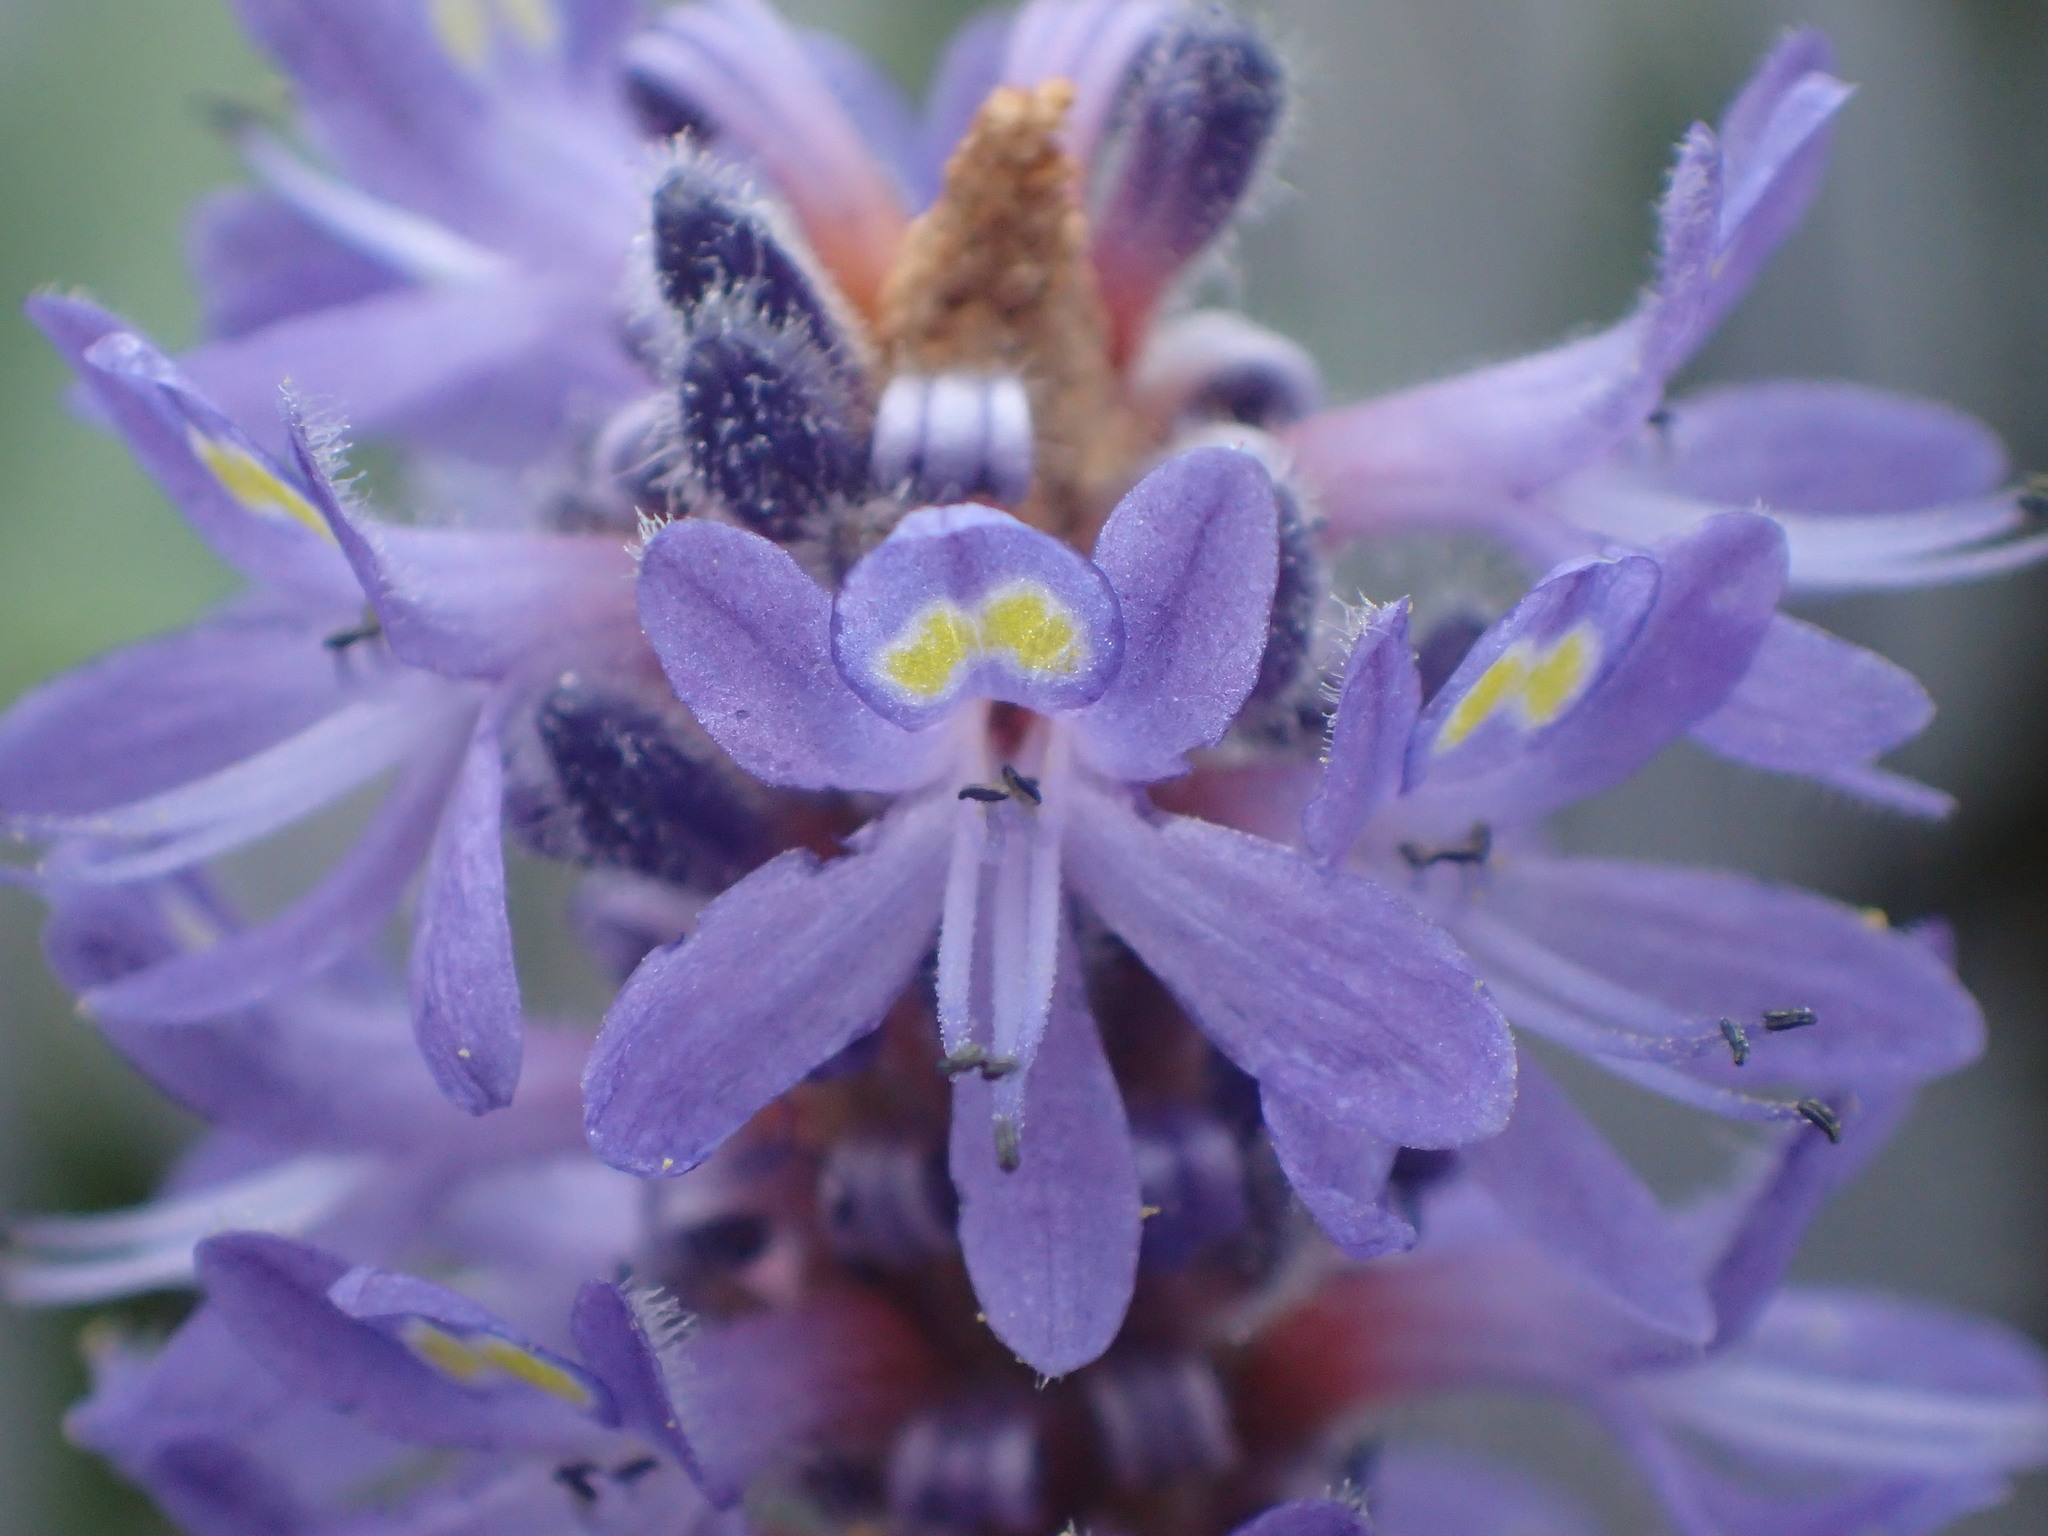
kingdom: Plantae
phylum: Tracheophyta
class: Liliopsida
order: Commelinales
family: Pontederiaceae
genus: Pontederia
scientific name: Pontederia cordata
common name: Pickerelweed
